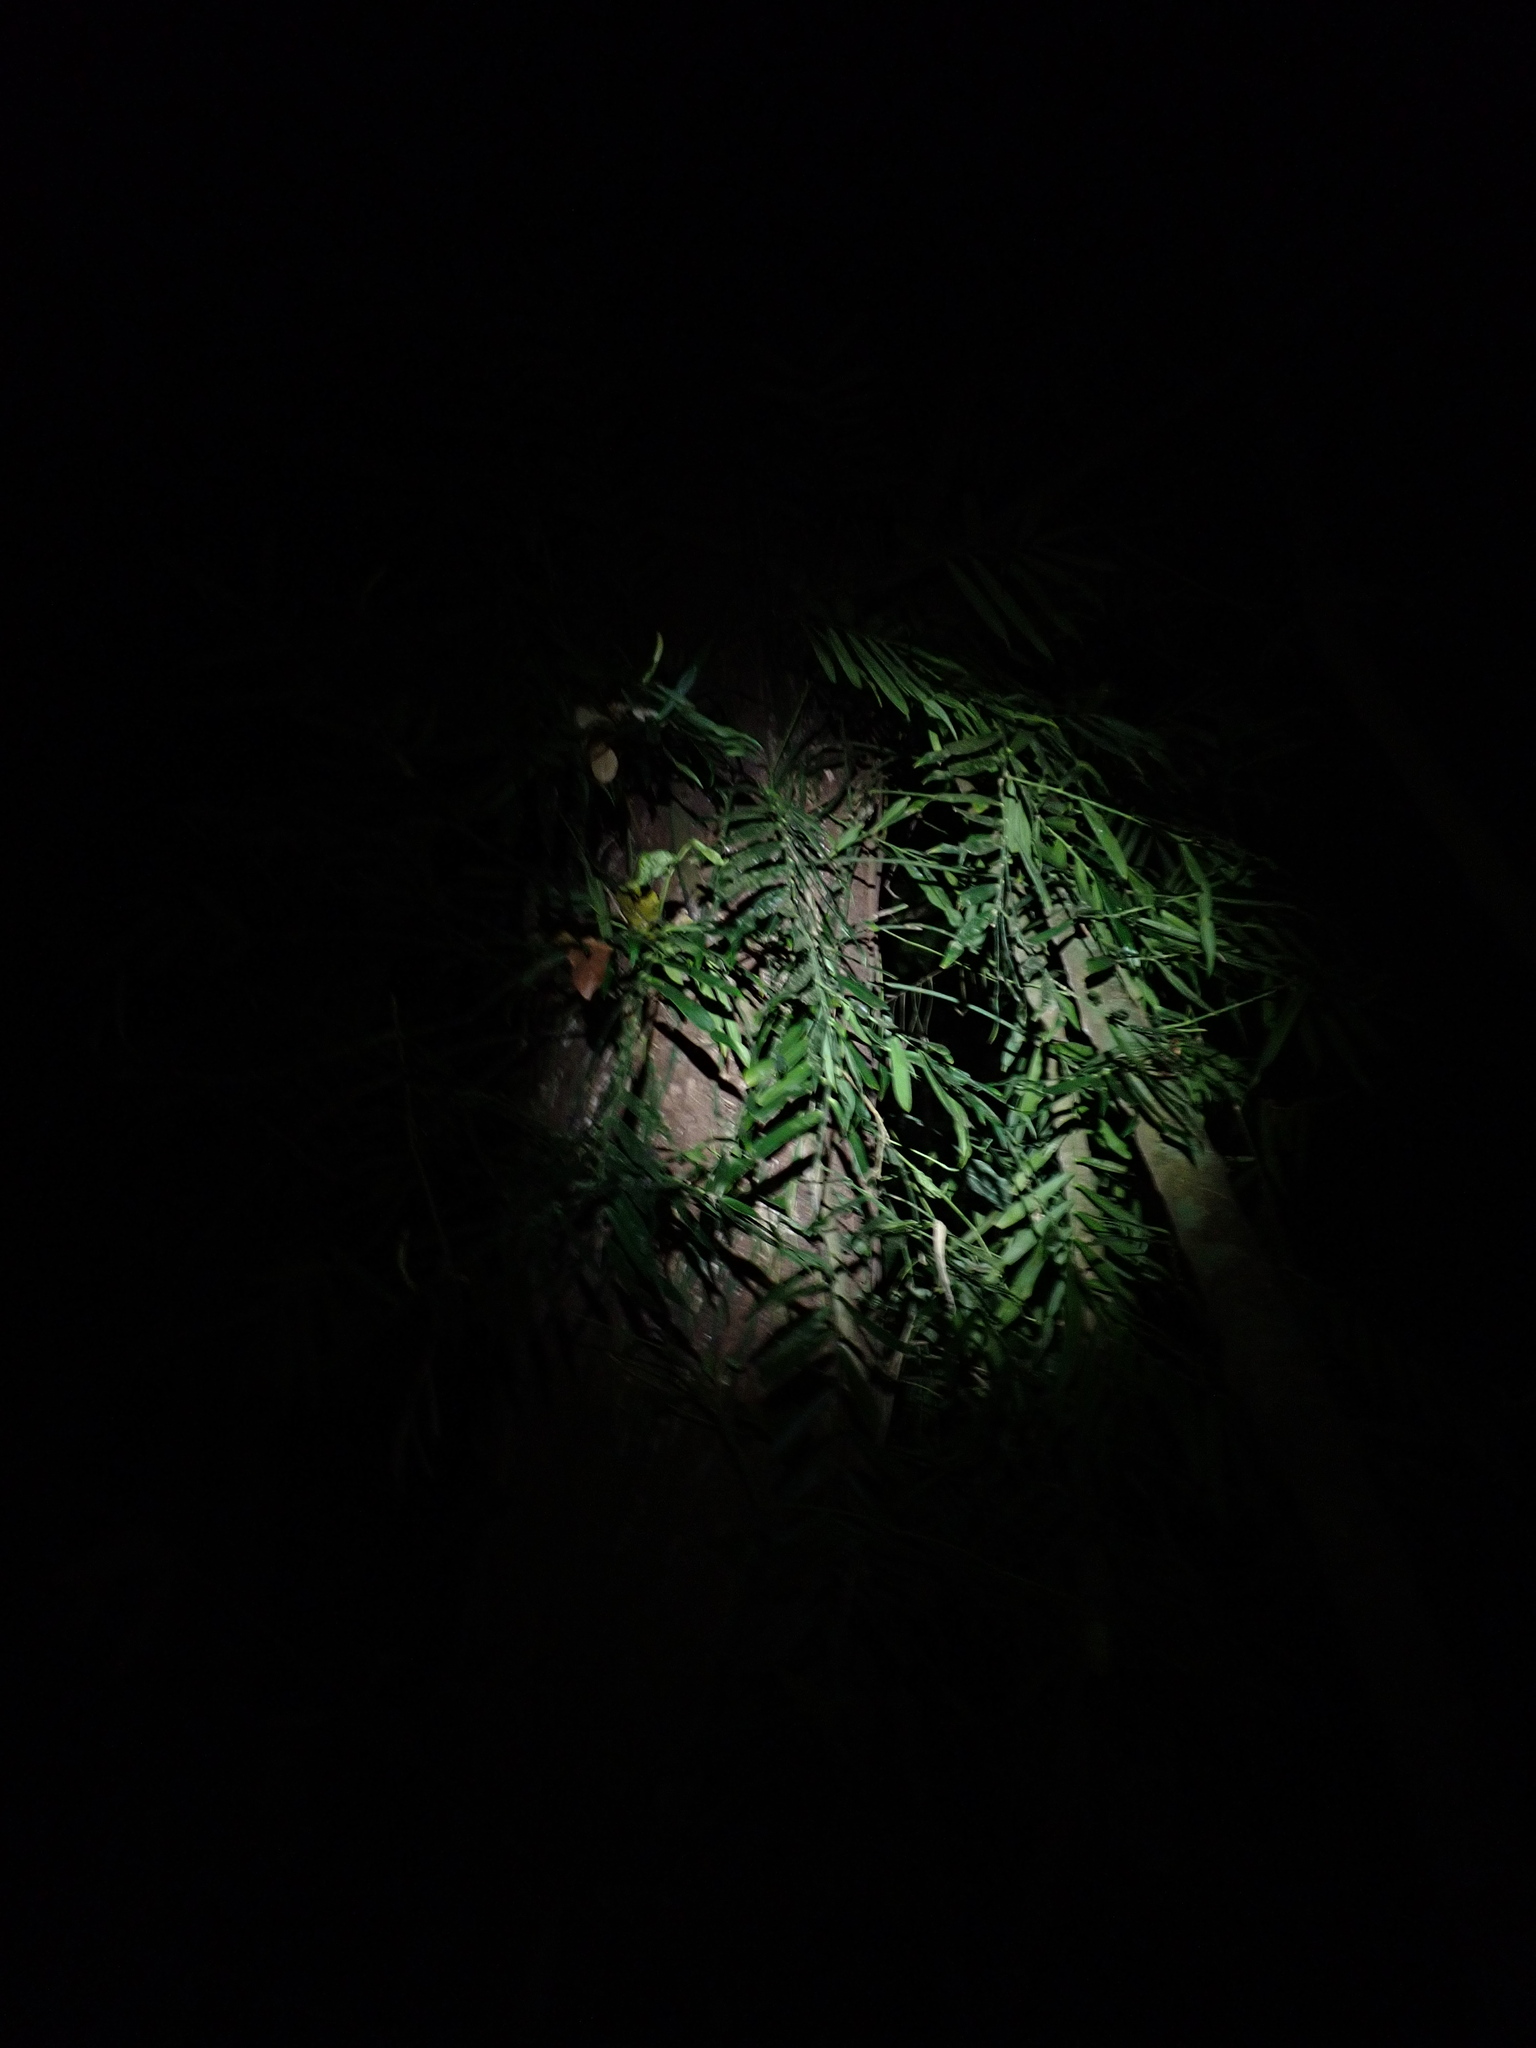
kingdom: Plantae
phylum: Tracheophyta
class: Liliopsida
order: Alismatales
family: Araceae
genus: Pothos
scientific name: Pothos longipes
